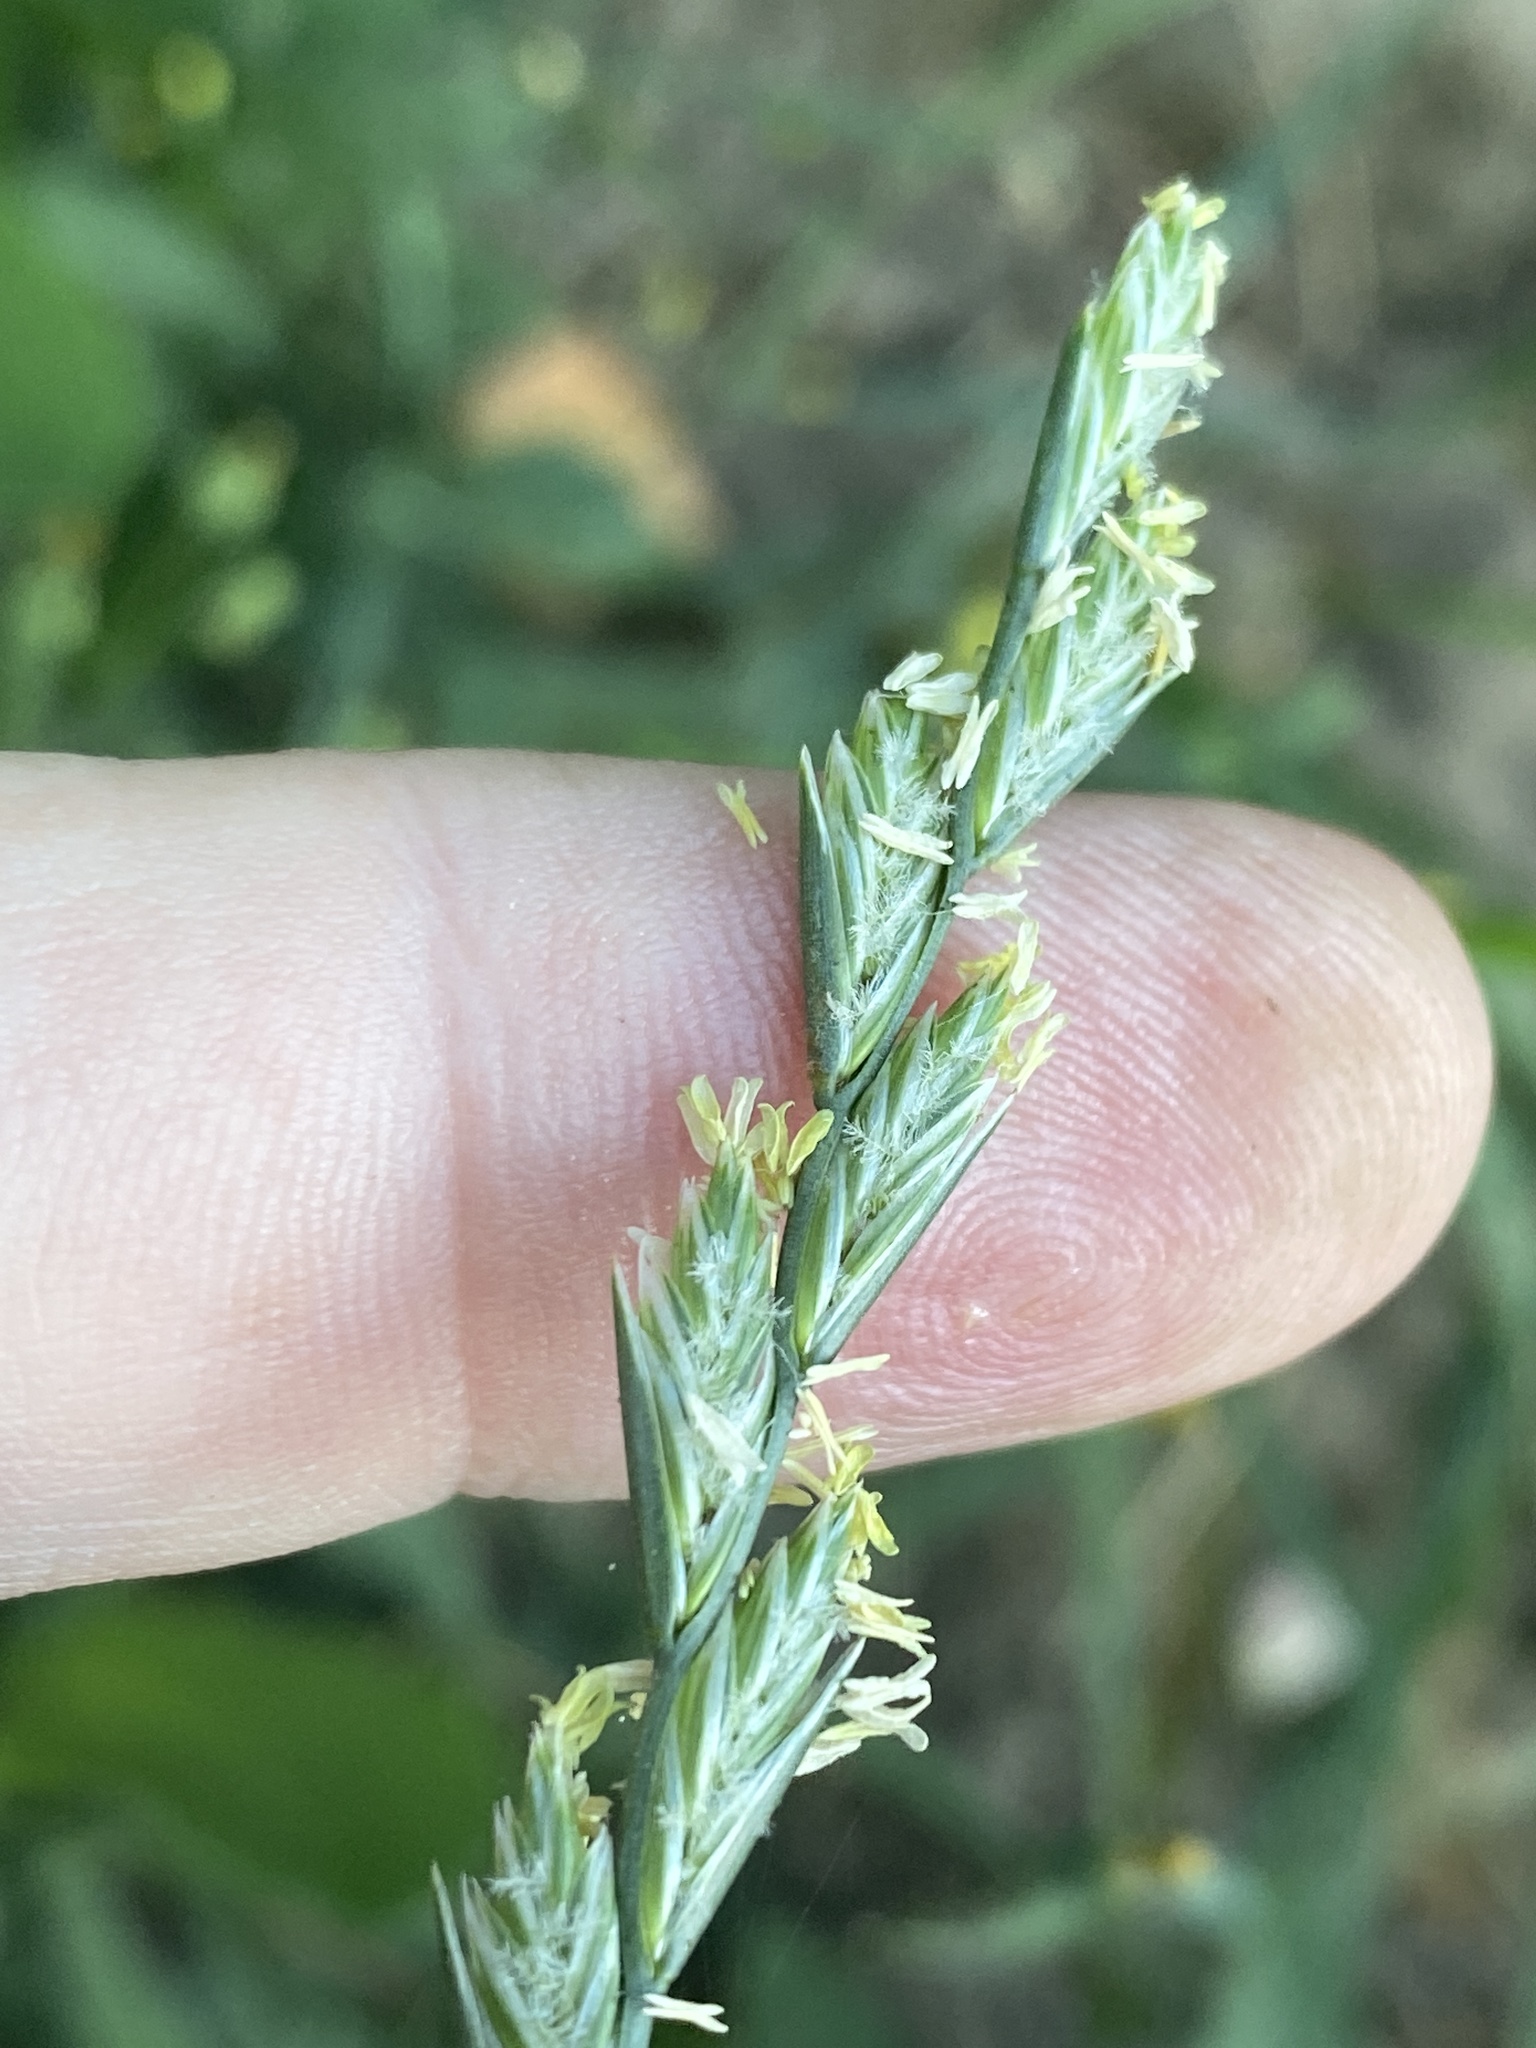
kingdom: Plantae
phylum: Tracheophyta
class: Liliopsida
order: Poales
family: Poaceae
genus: Lolium
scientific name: Lolium perenne
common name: Perennial ryegrass
